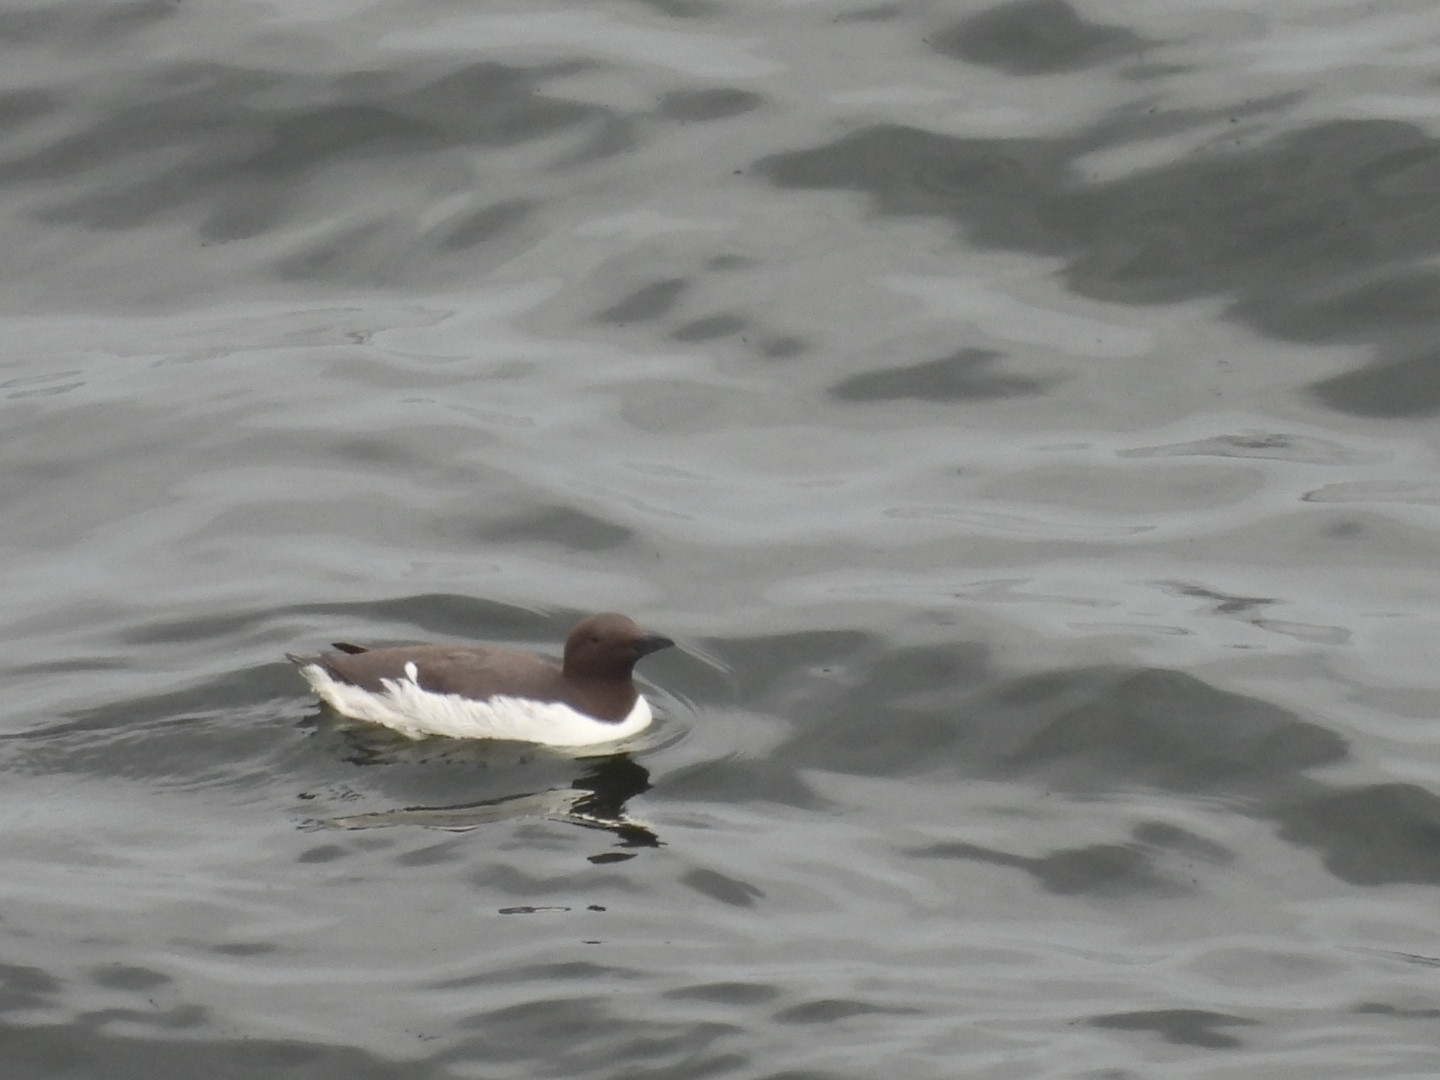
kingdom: Animalia
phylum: Chordata
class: Aves
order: Charadriiformes
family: Alcidae
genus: Uria
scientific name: Uria aalge
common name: Common murre
